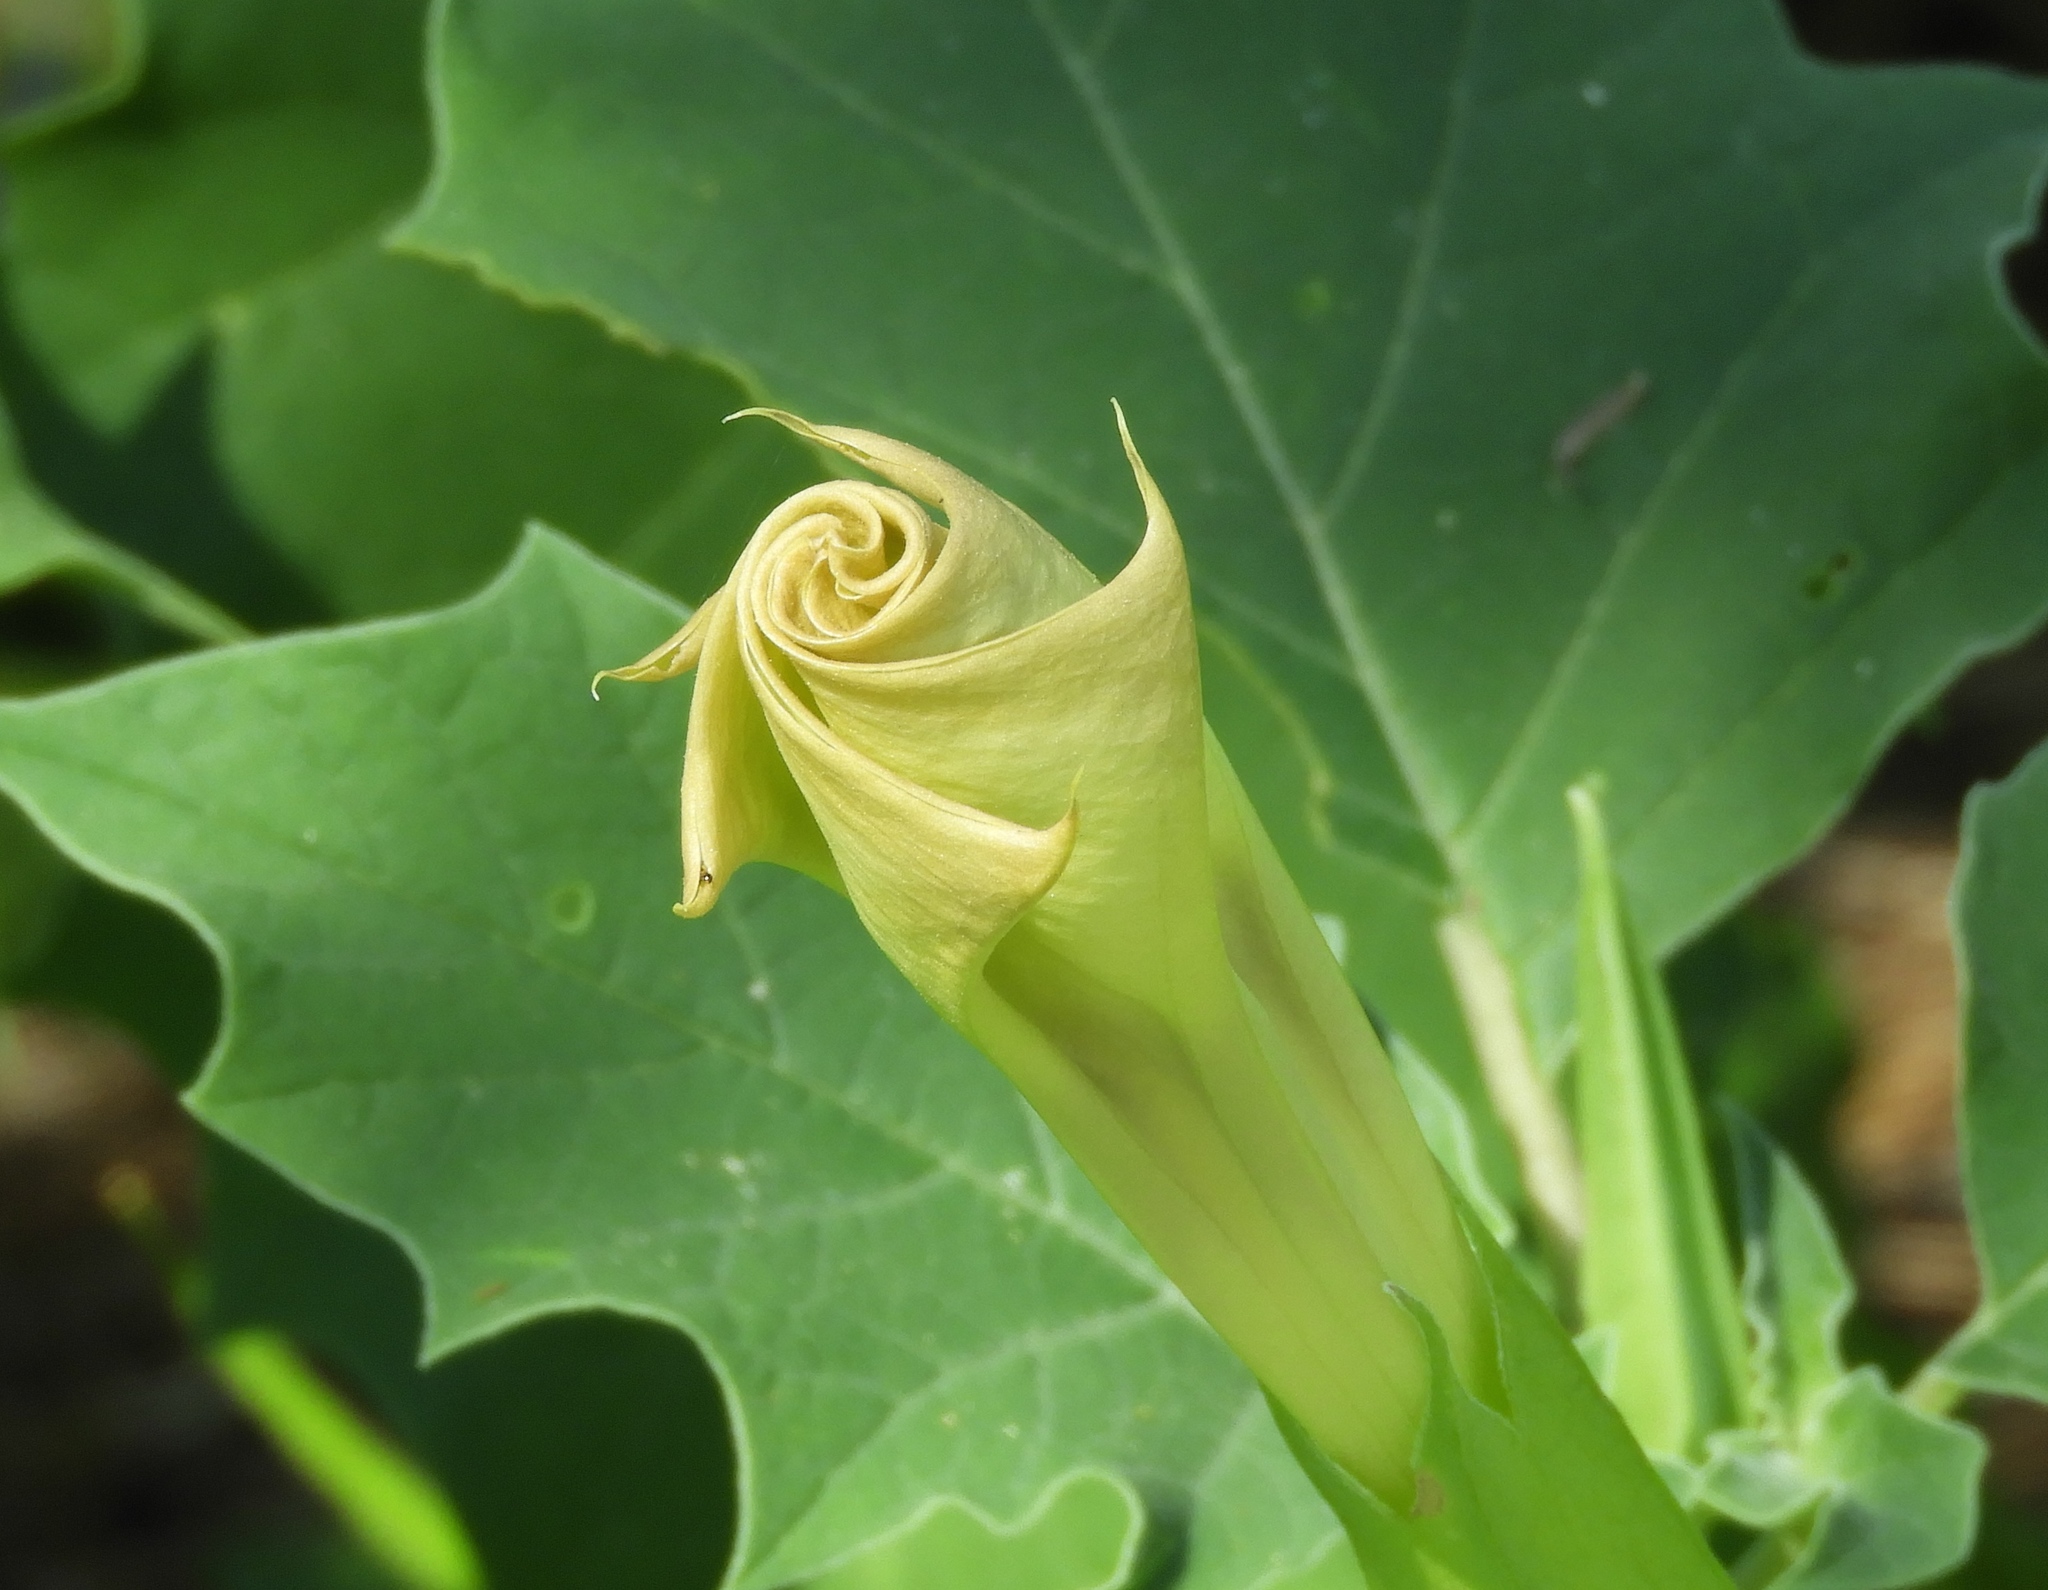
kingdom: Plantae
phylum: Tracheophyta
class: Magnoliopsida
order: Solanales
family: Solanaceae
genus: Datura
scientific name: Datura
